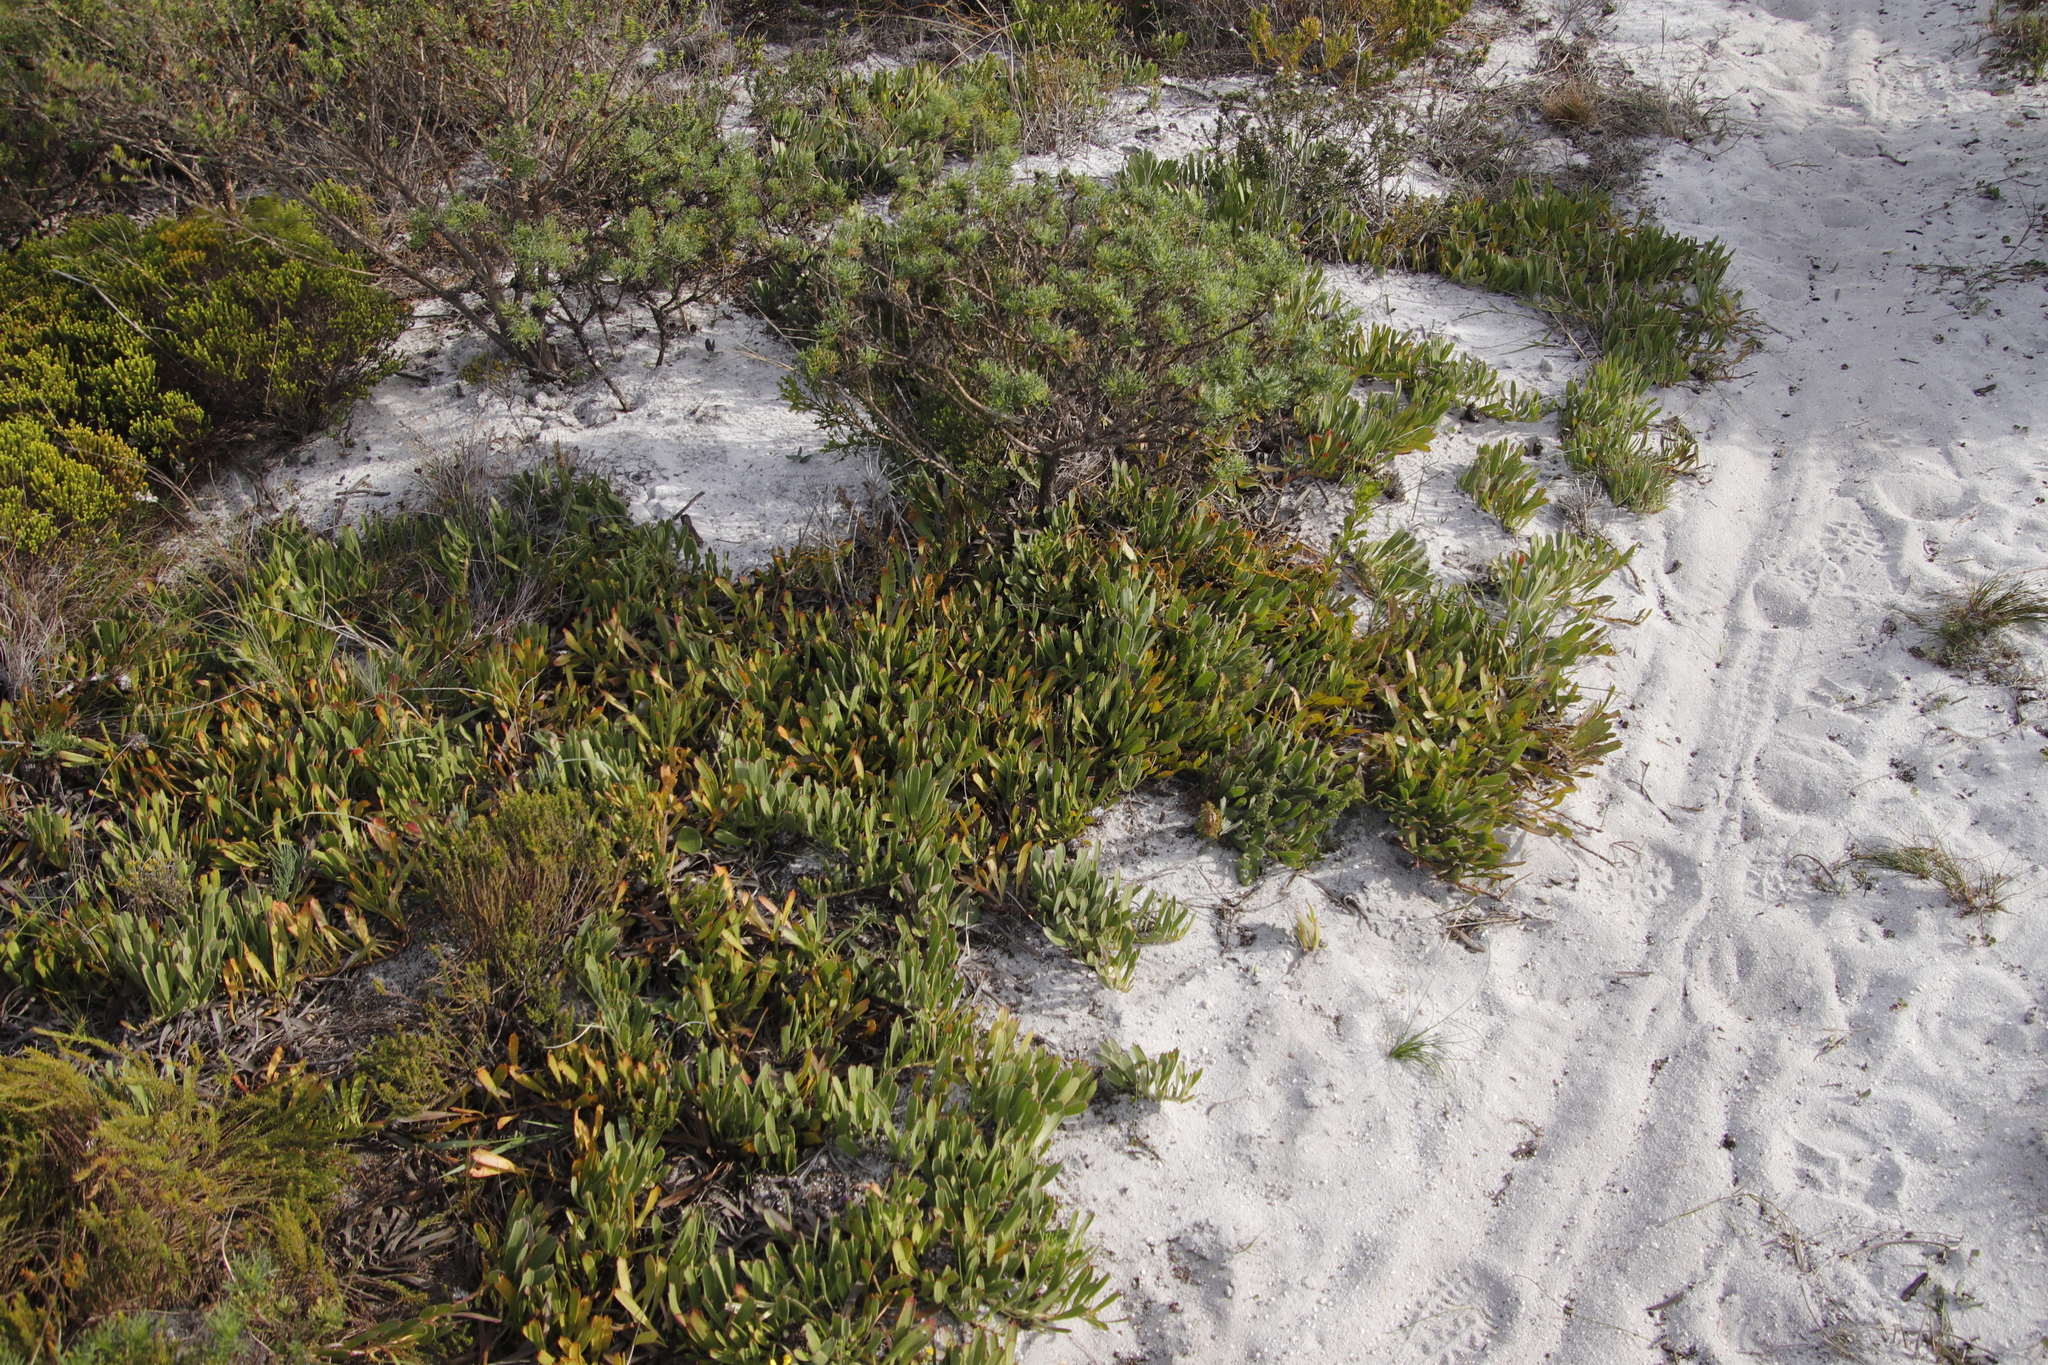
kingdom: Plantae
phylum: Tracheophyta
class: Magnoliopsida
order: Proteales
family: Proteaceae
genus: Leucospermum
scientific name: Leucospermum hypophyllocarpodendron
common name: Snakestem pincushion
